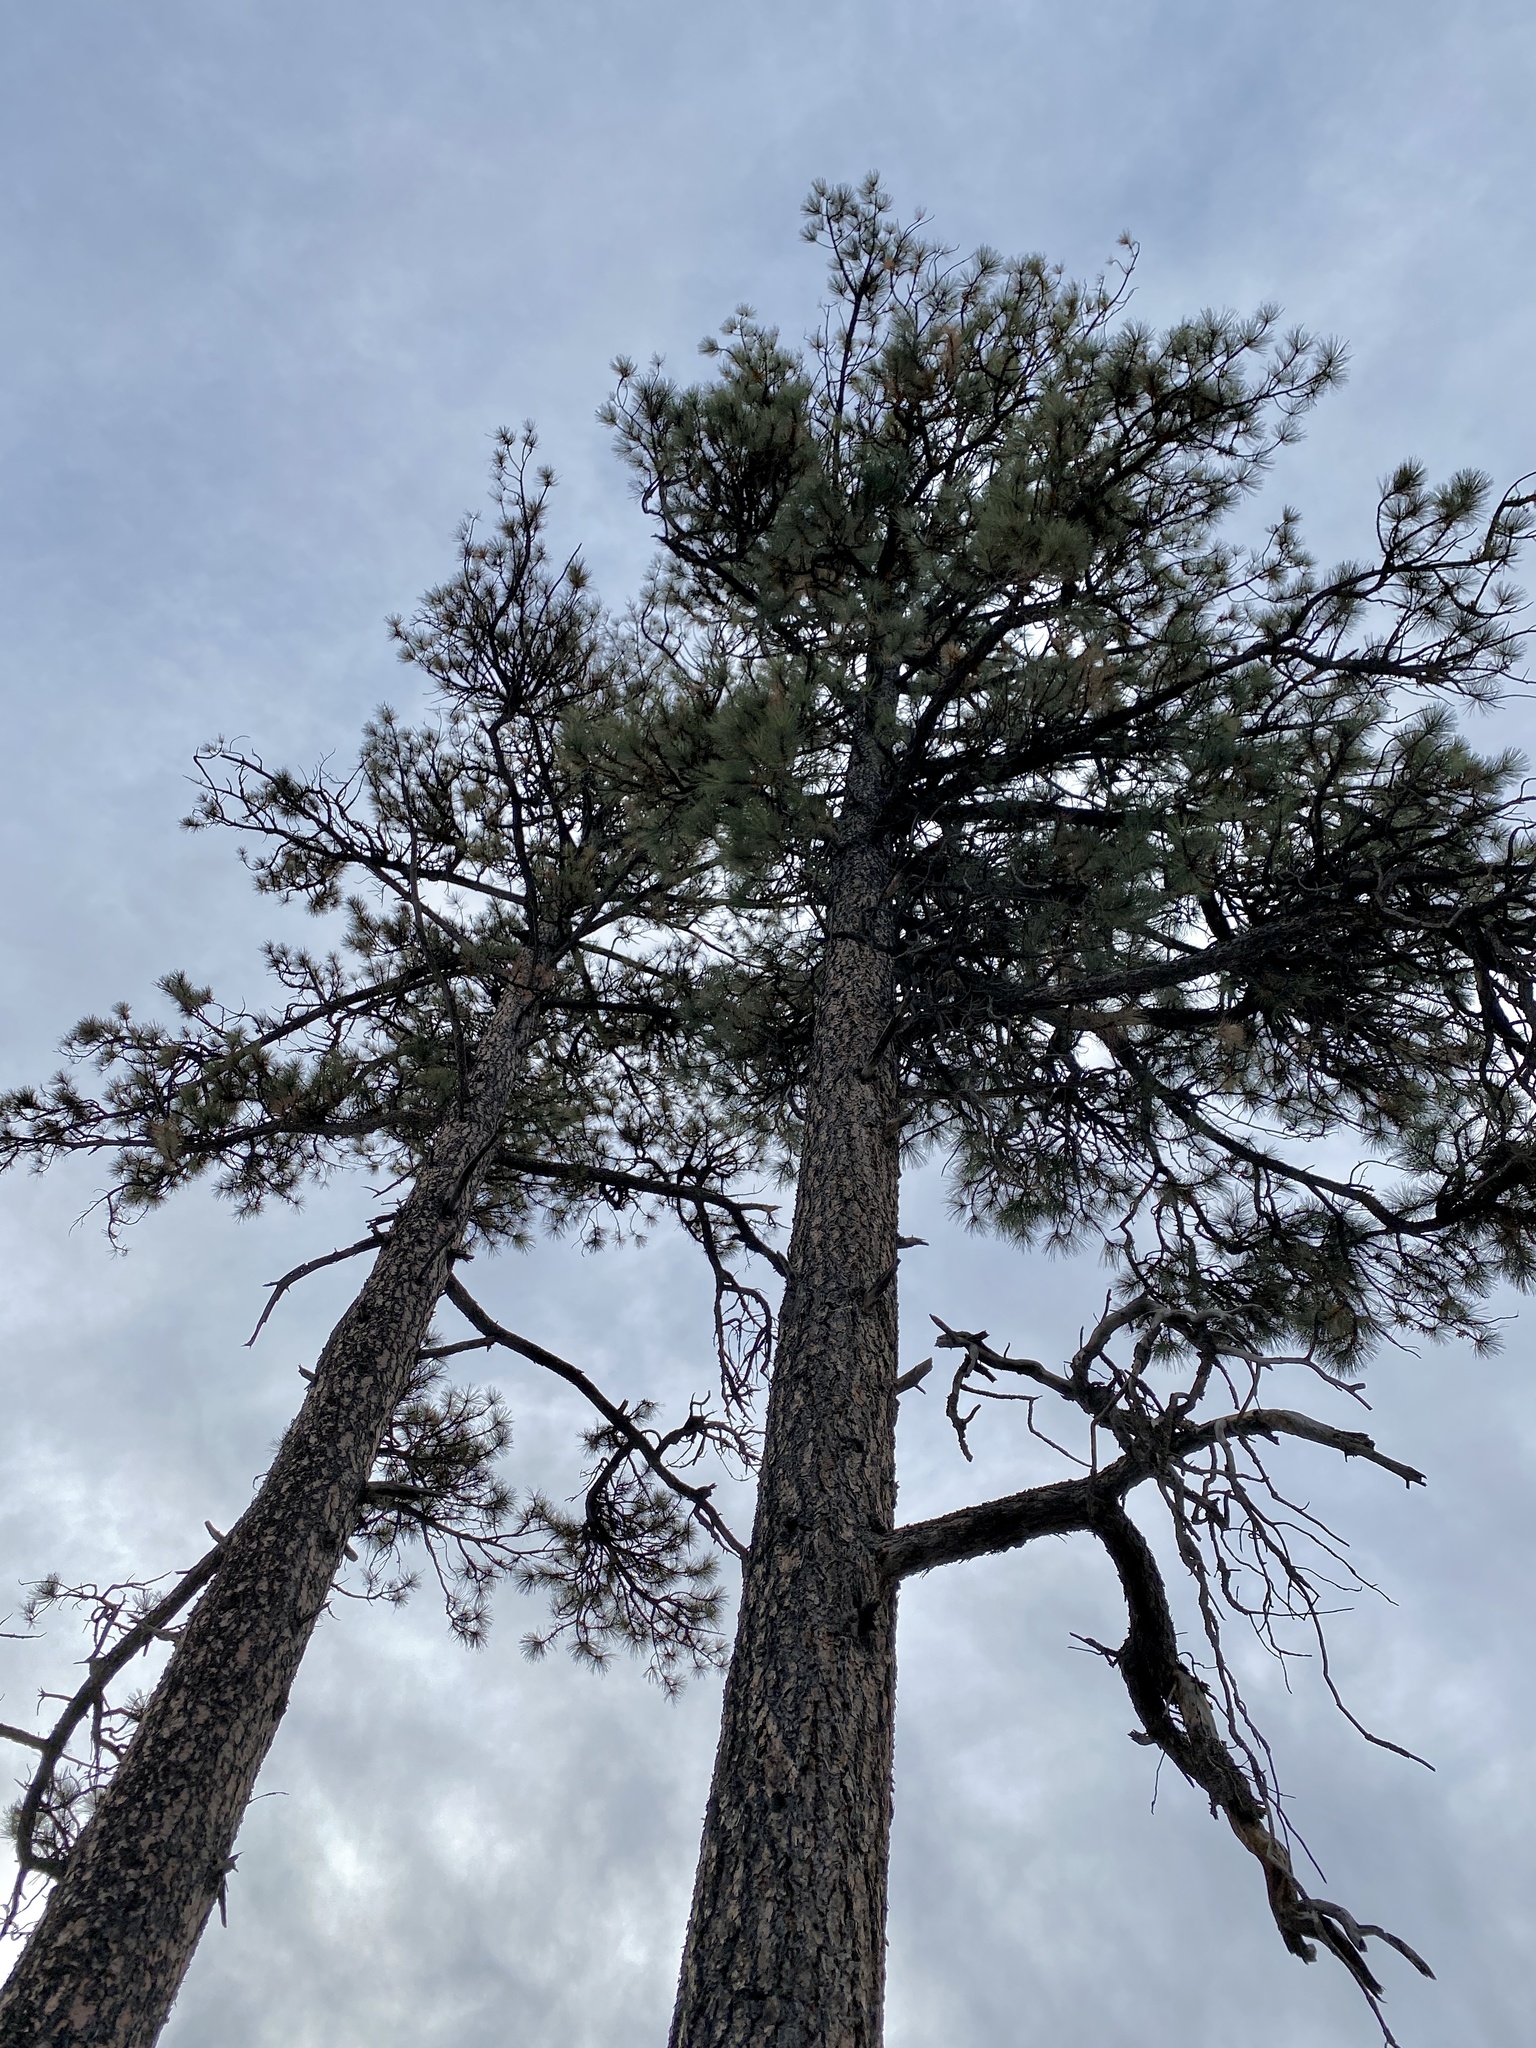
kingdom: Plantae
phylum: Tracheophyta
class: Pinopsida
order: Pinales
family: Pinaceae
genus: Pinus
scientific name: Pinus ponderosa
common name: Western yellow-pine
